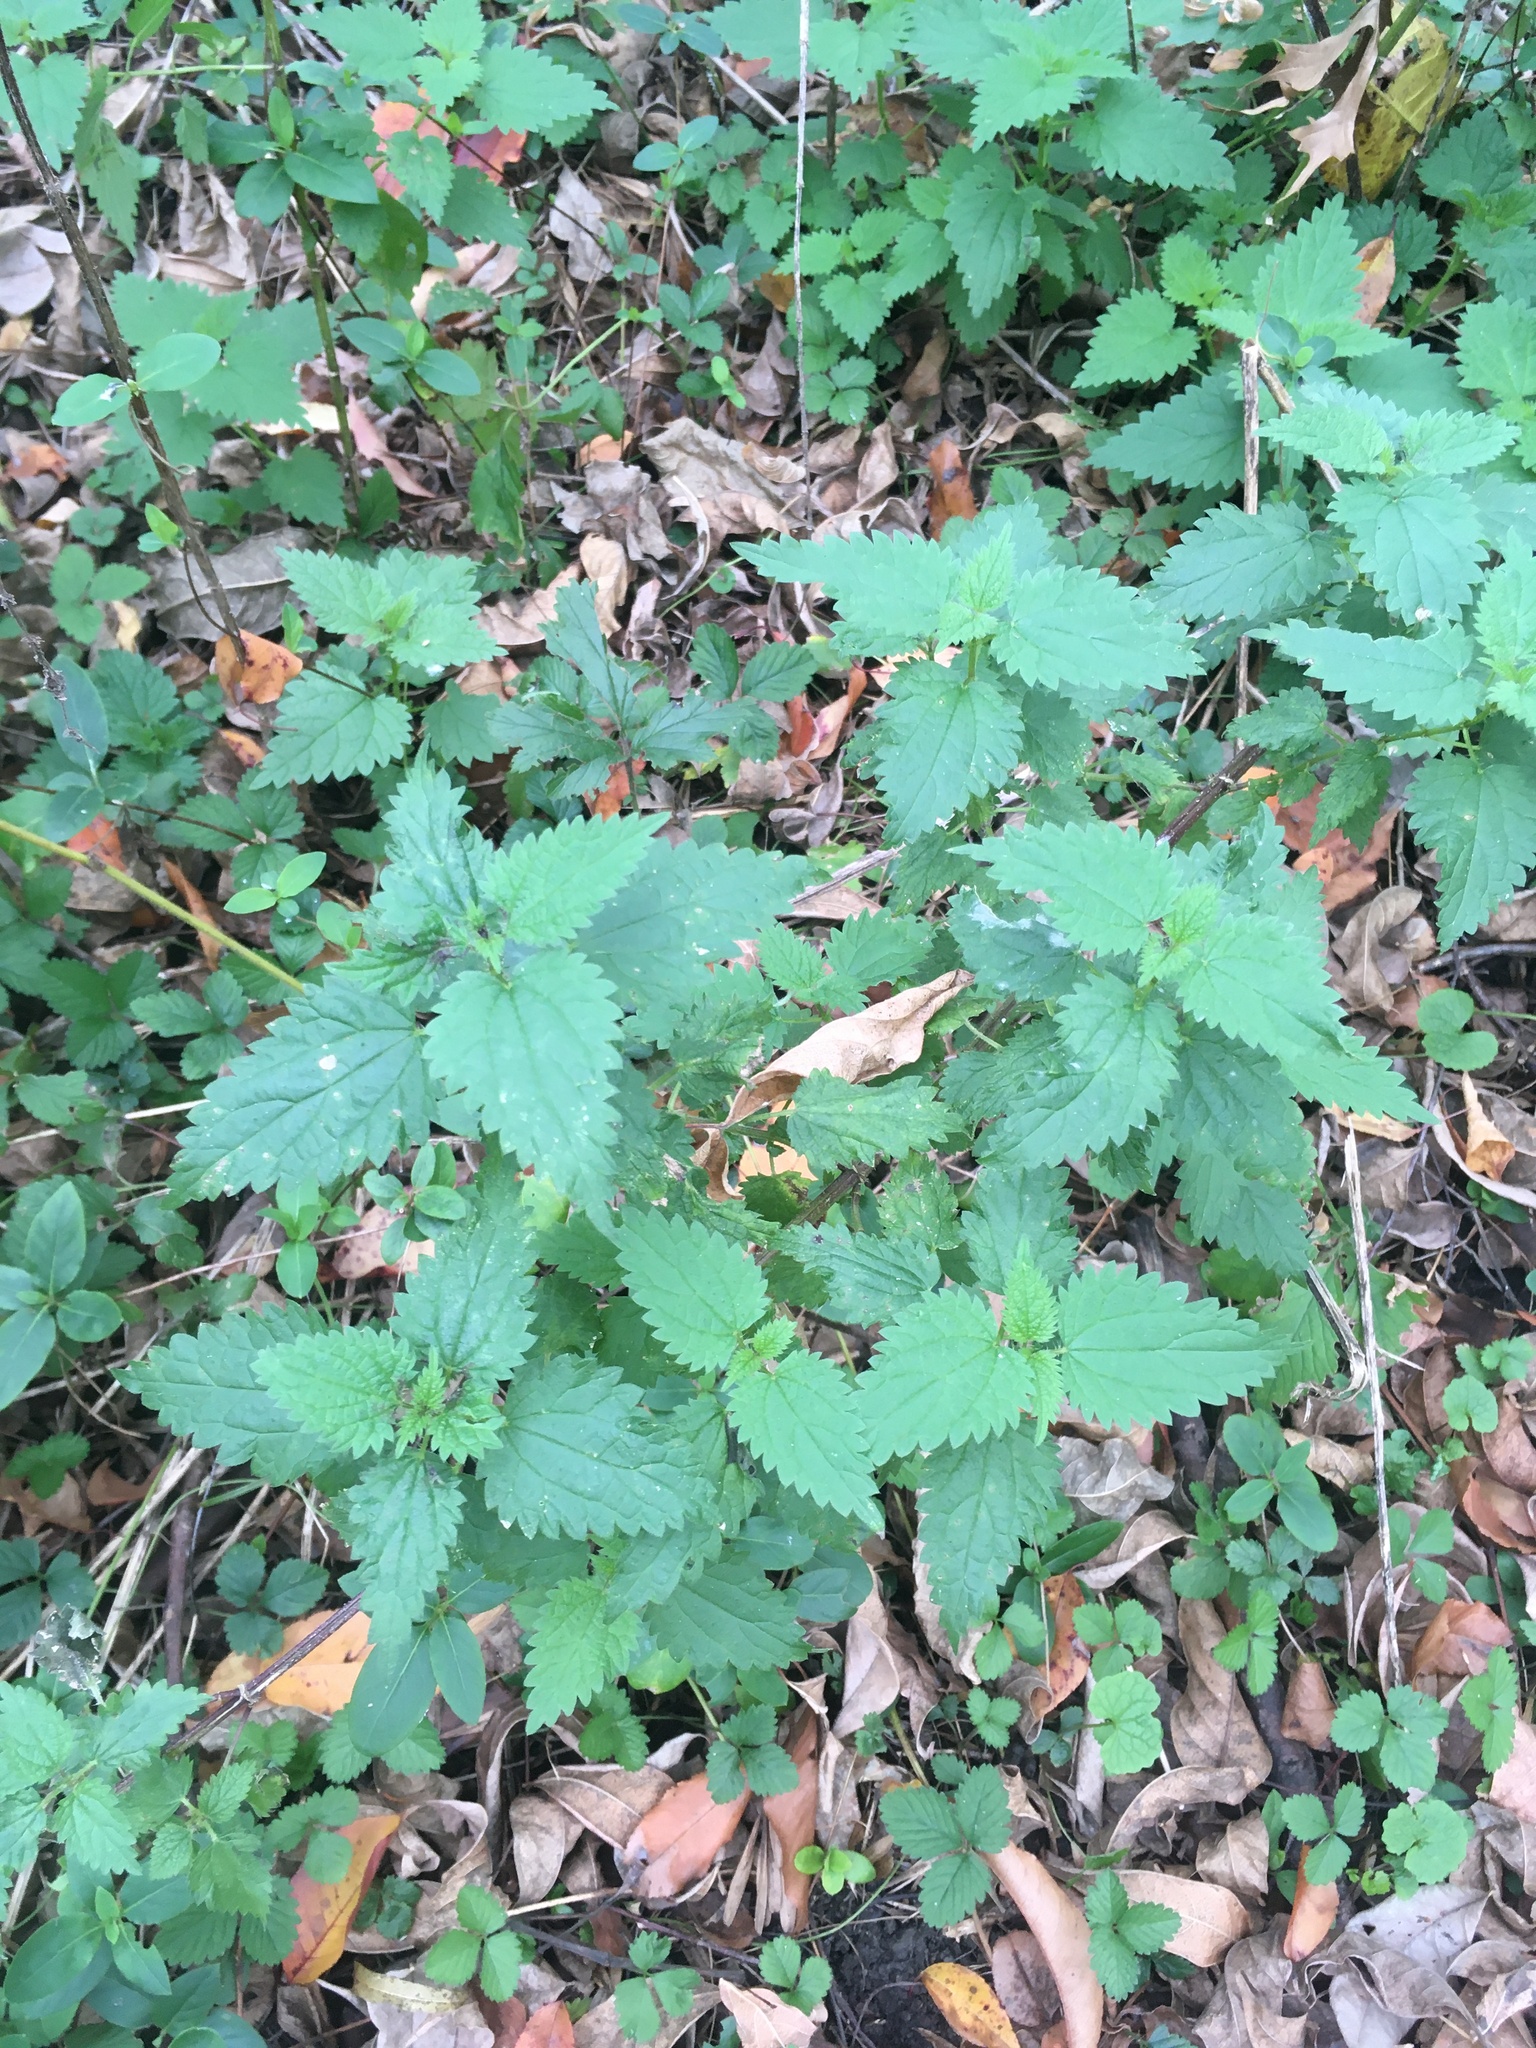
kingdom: Plantae
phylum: Tracheophyta
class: Magnoliopsida
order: Rosales
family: Urticaceae
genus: Urtica
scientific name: Urtica dioica
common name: Common nettle
